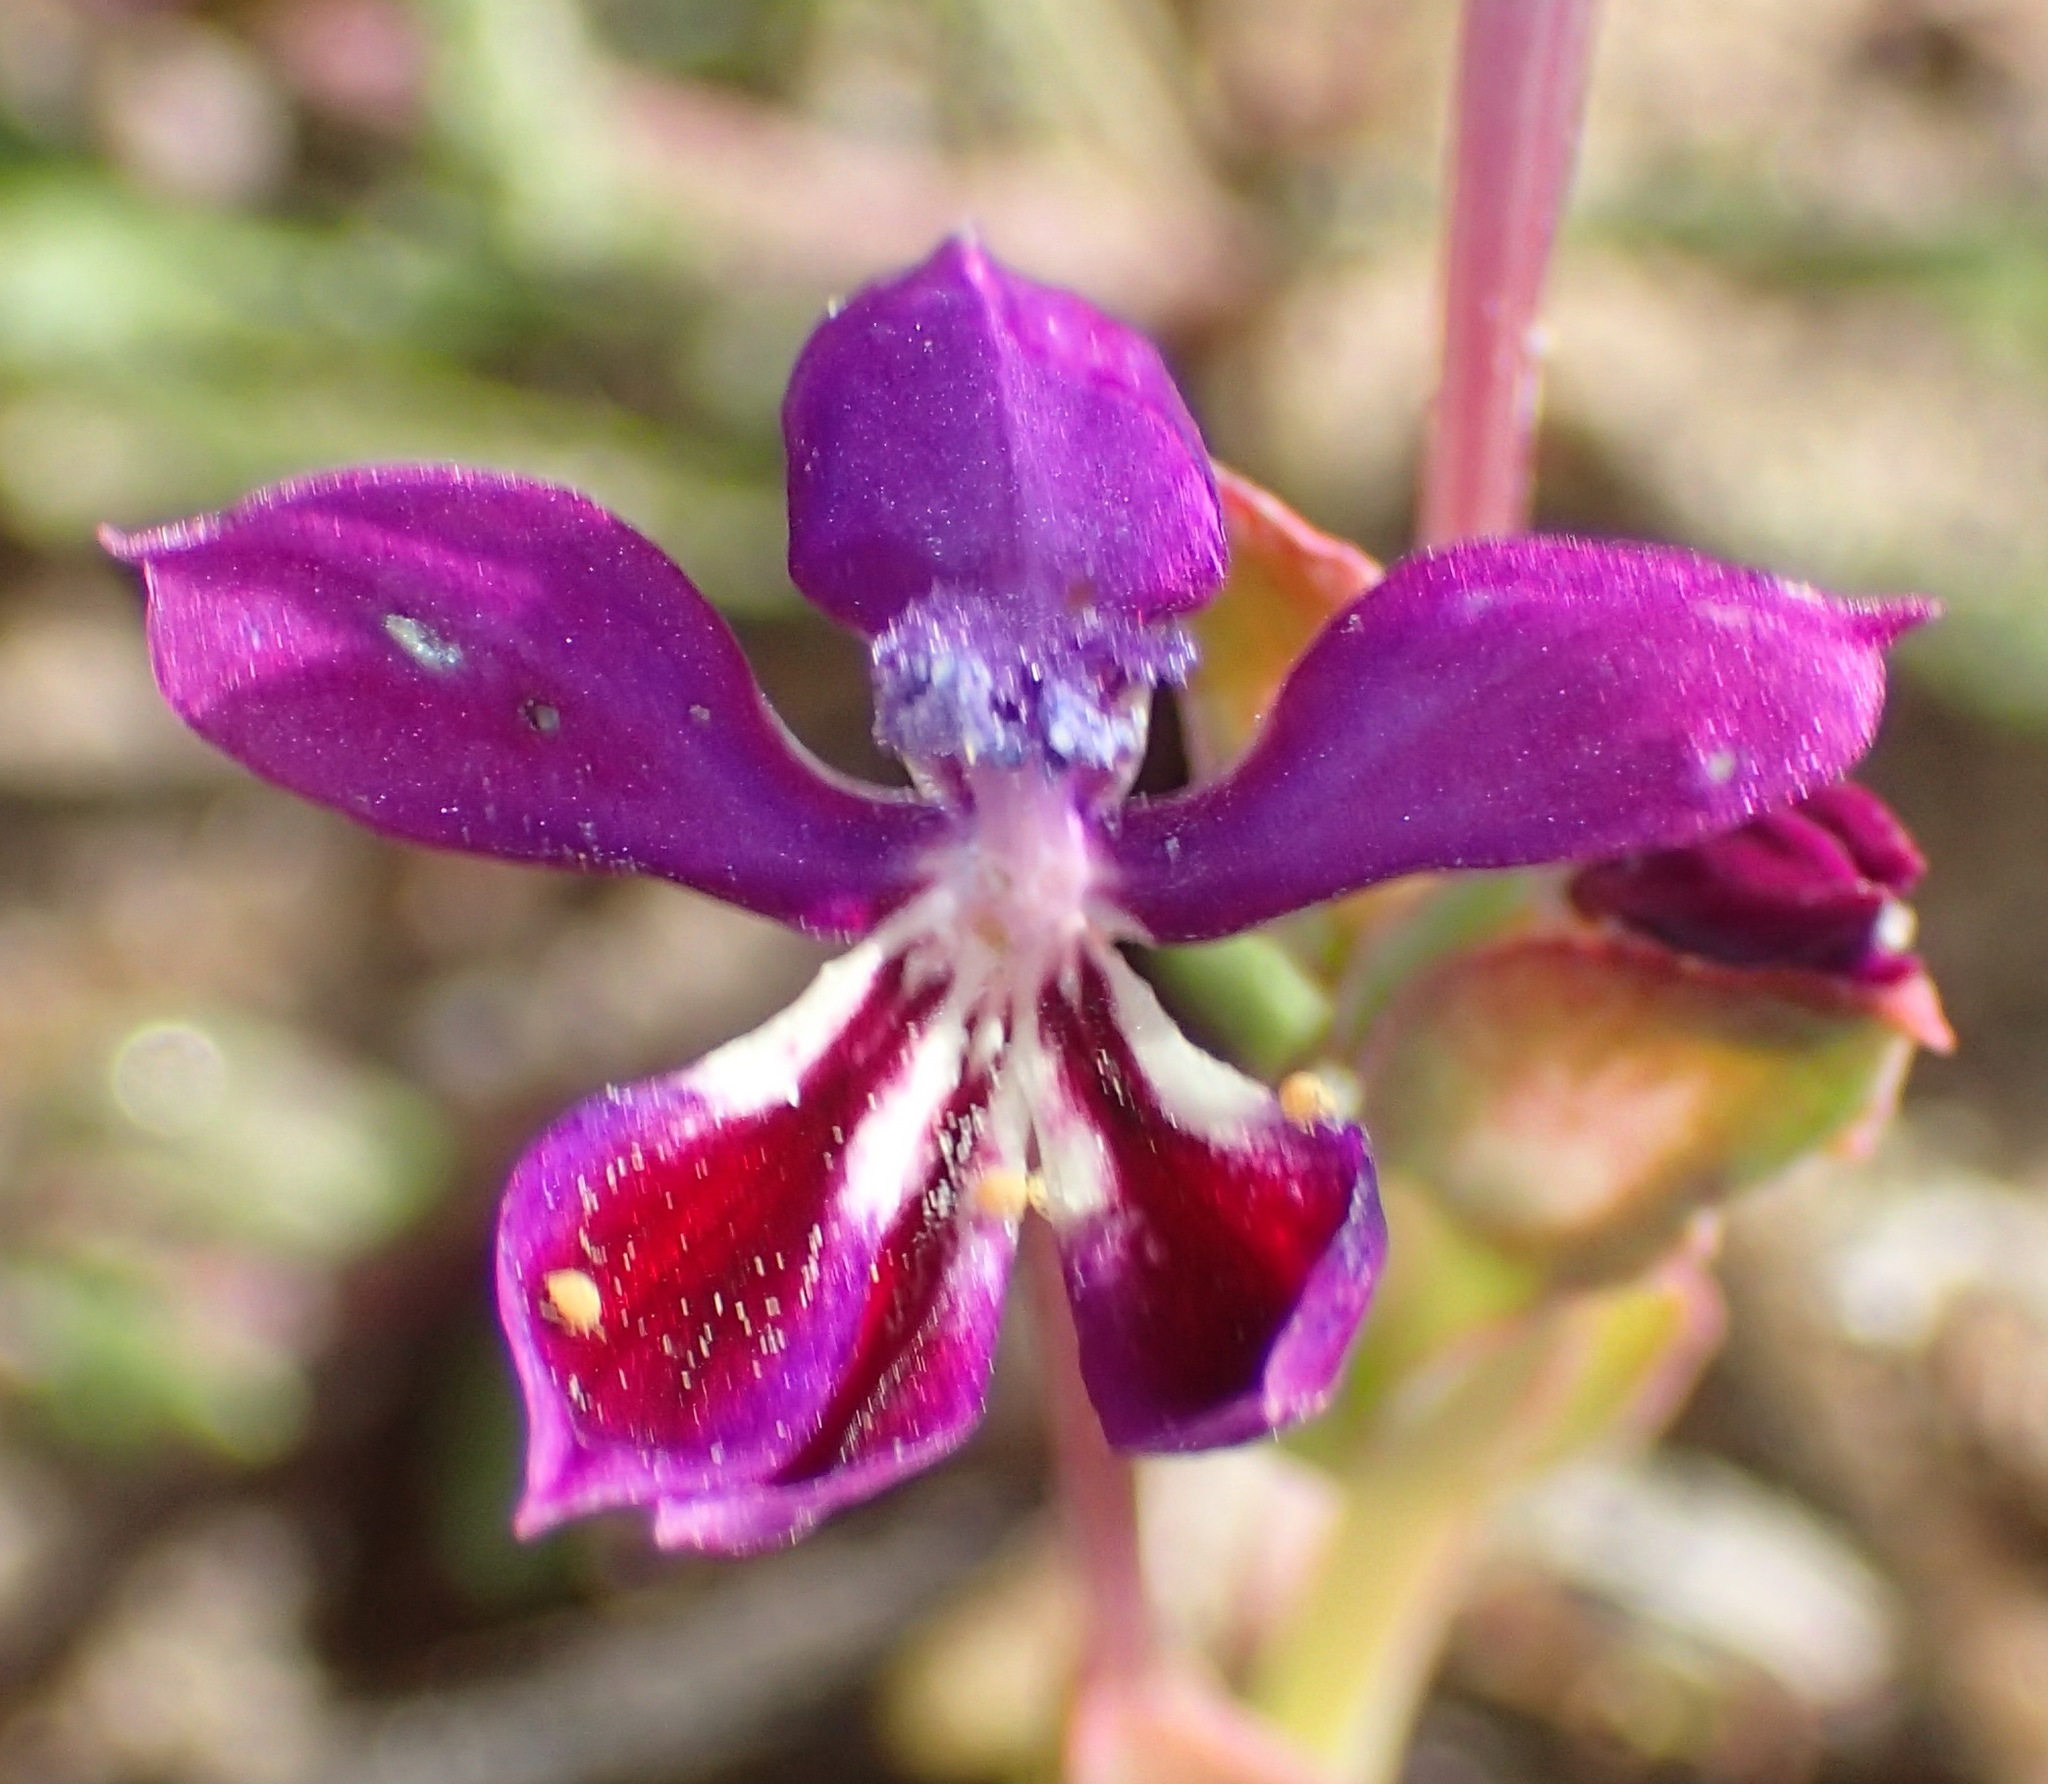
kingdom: Plantae
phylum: Tracheophyta
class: Liliopsida
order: Asparagales
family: Iridaceae
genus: Lapeirousia
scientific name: Lapeirousia jacquinii
